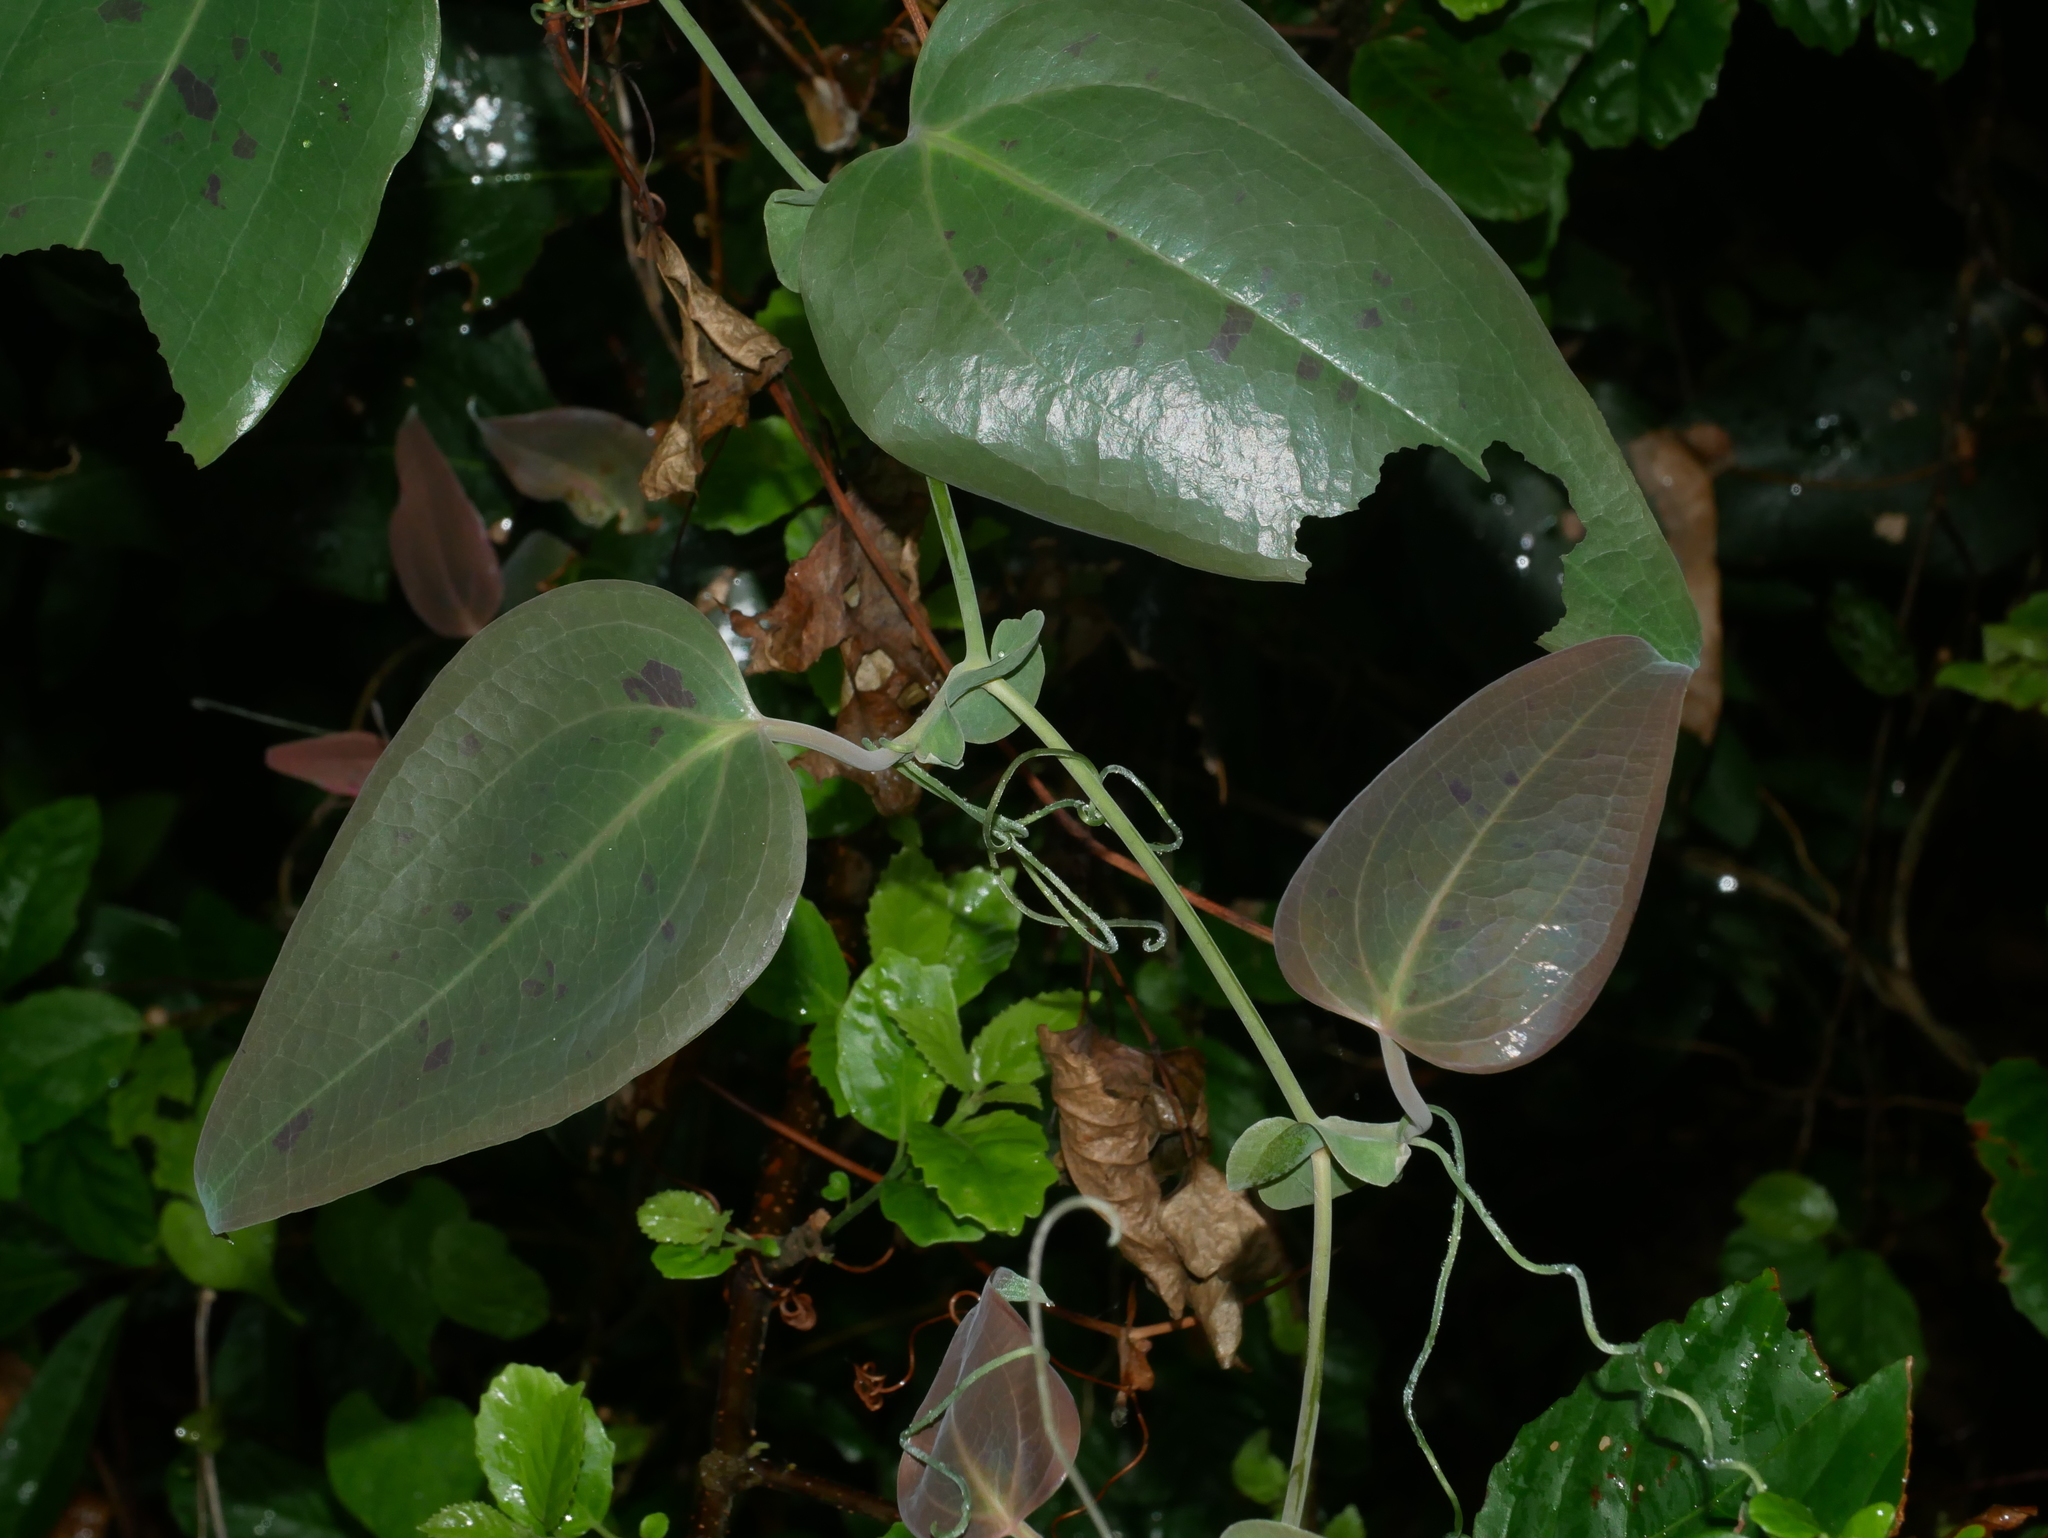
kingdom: Plantae
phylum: Tracheophyta
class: Liliopsida
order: Liliales
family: Smilacaceae
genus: Smilax
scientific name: Smilax ocreata
